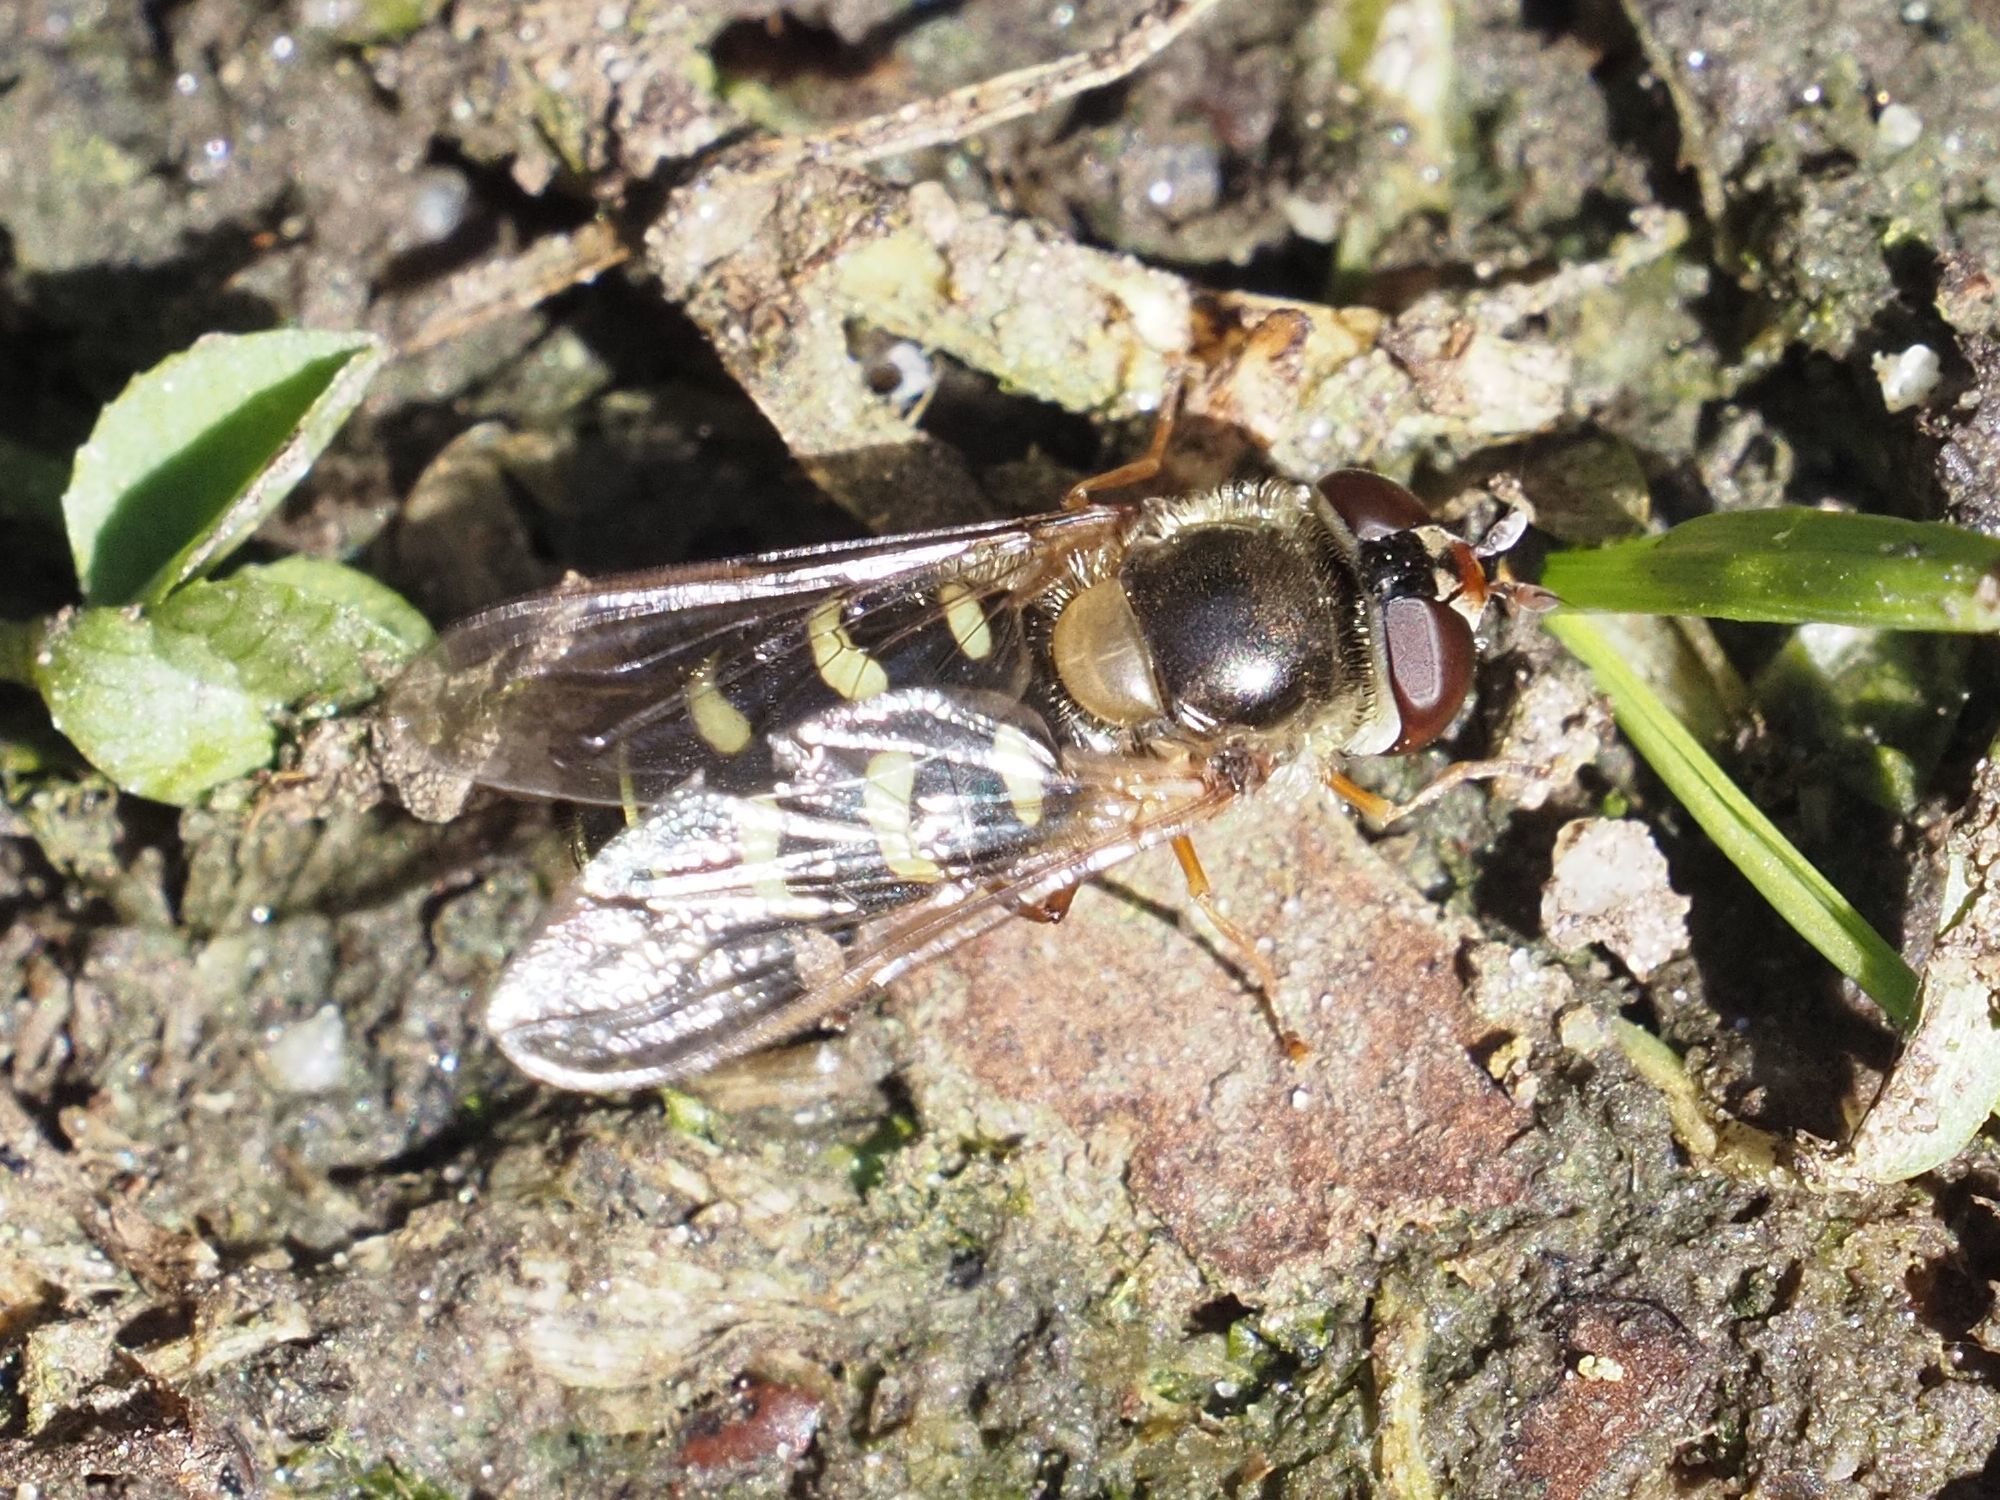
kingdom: Animalia
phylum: Arthropoda
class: Insecta
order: Diptera
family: Syrphidae
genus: Lapposyrphus
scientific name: Lapposyrphus lapponicus
